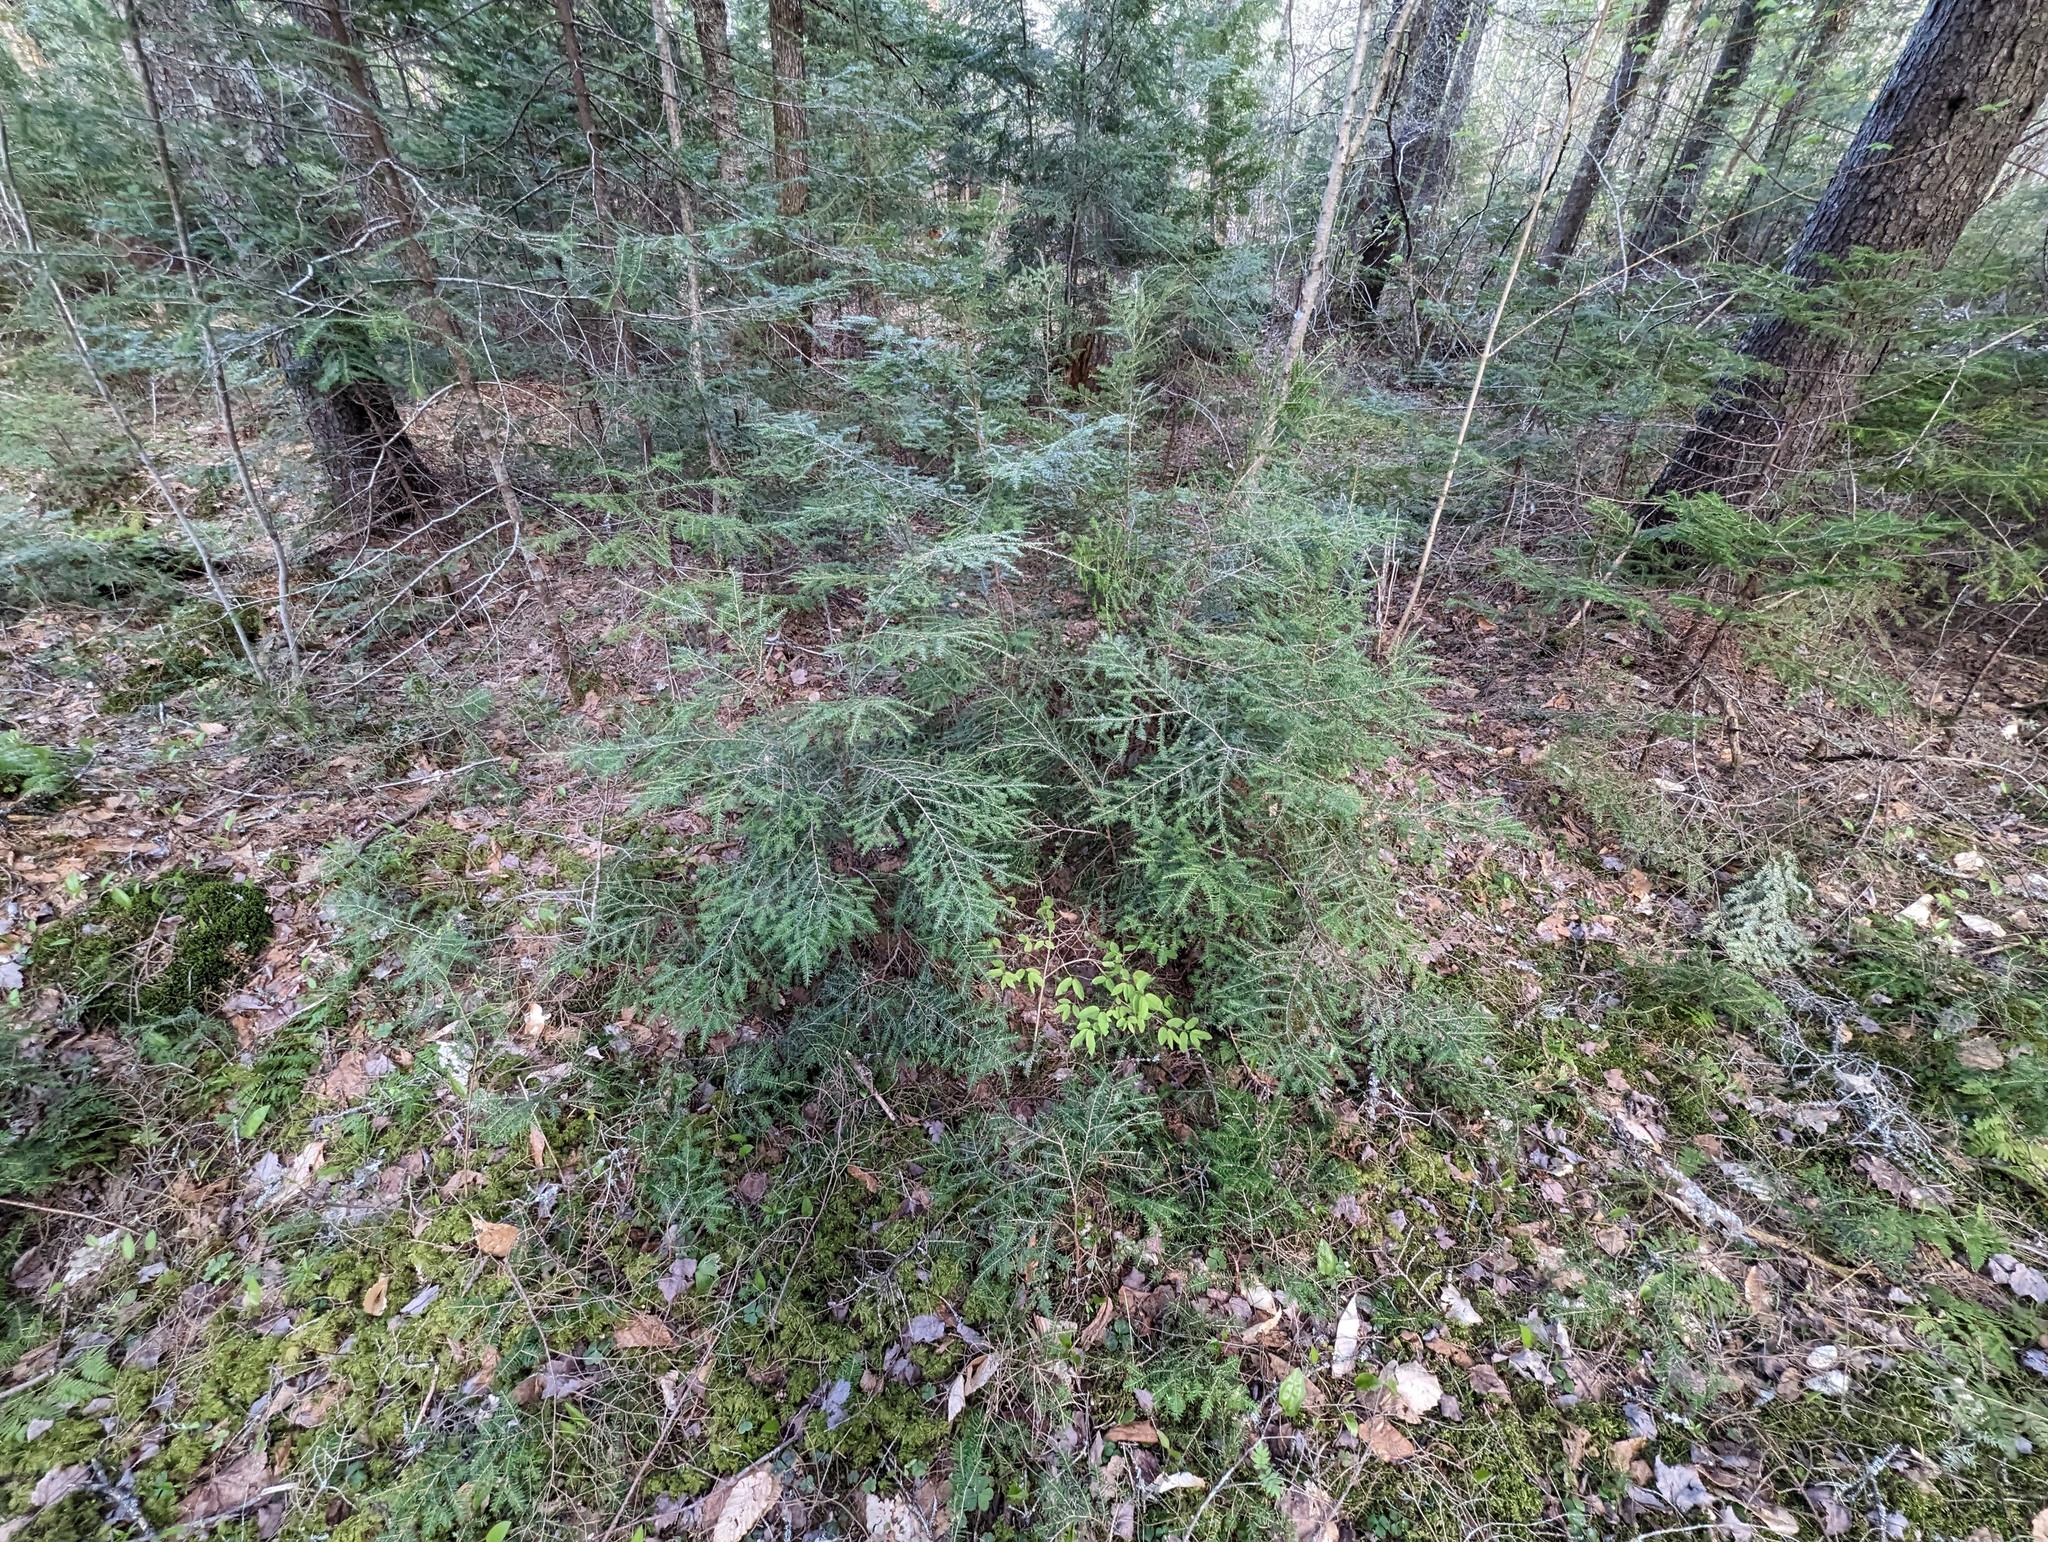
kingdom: Plantae
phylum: Tracheophyta
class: Pinopsida
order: Pinales
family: Pinaceae
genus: Tsuga
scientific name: Tsuga canadensis
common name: Eastern hemlock
